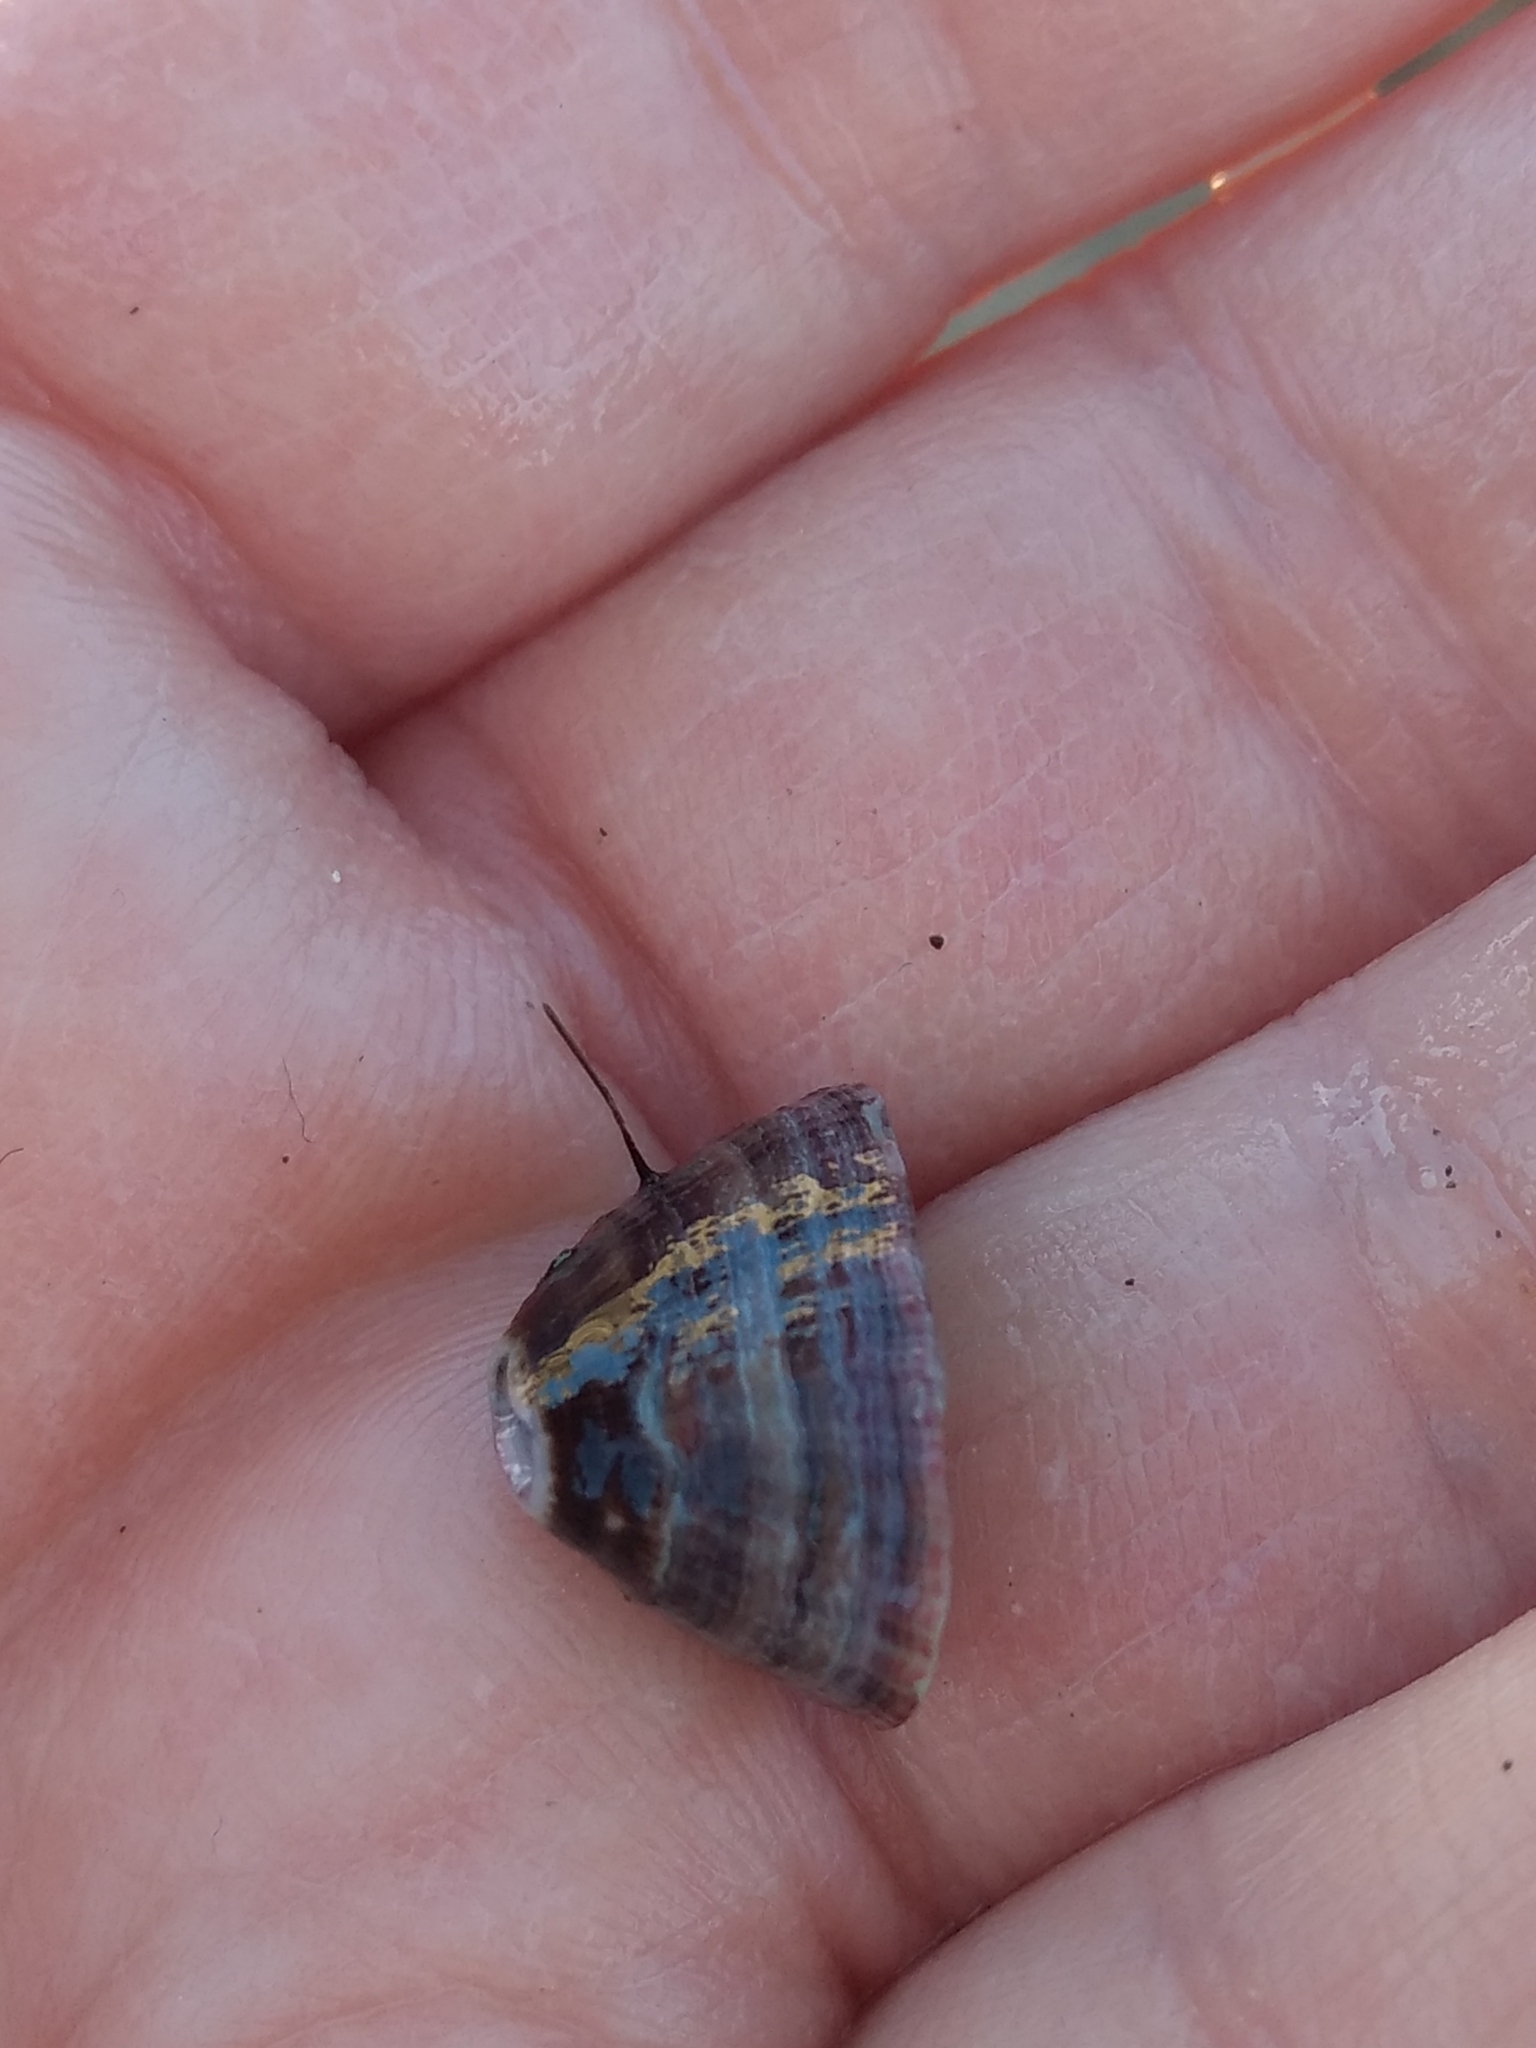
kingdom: Animalia
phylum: Mollusca
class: Gastropoda
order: Lepetellida
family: Fissurellidae
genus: Fissurella
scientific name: Fissurella volcano
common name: Volcano keyhole limpet
